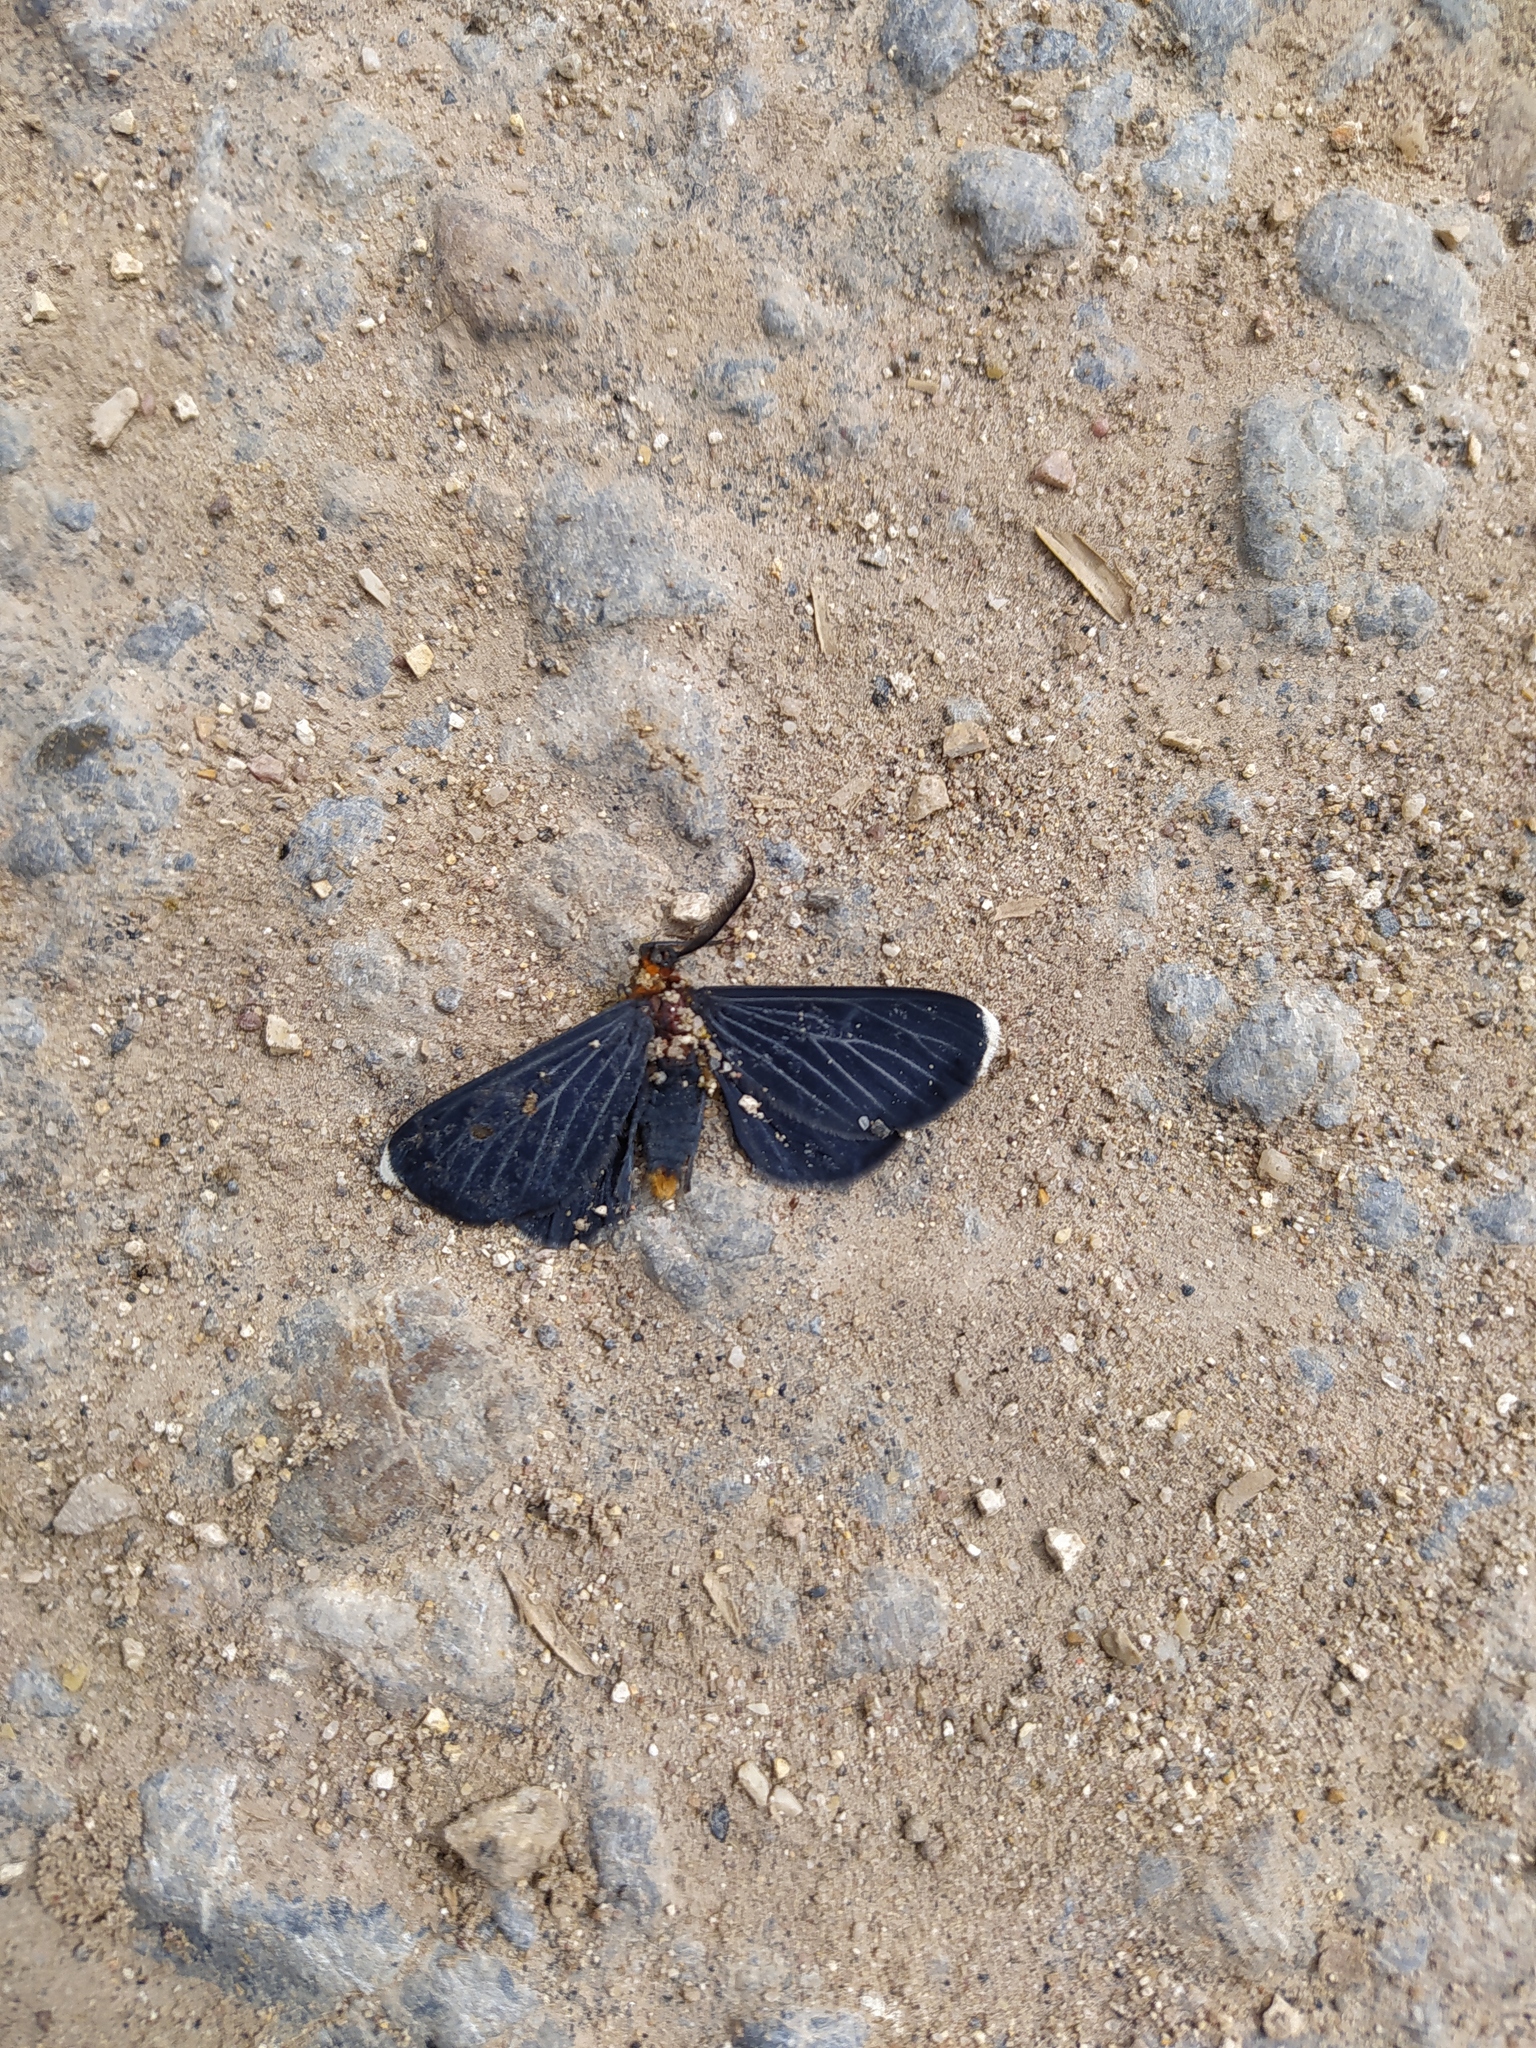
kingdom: Animalia
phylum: Arthropoda
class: Insecta
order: Lepidoptera
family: Geometridae
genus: Melanchroia
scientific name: Melanchroia chephise
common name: White-tipped black
